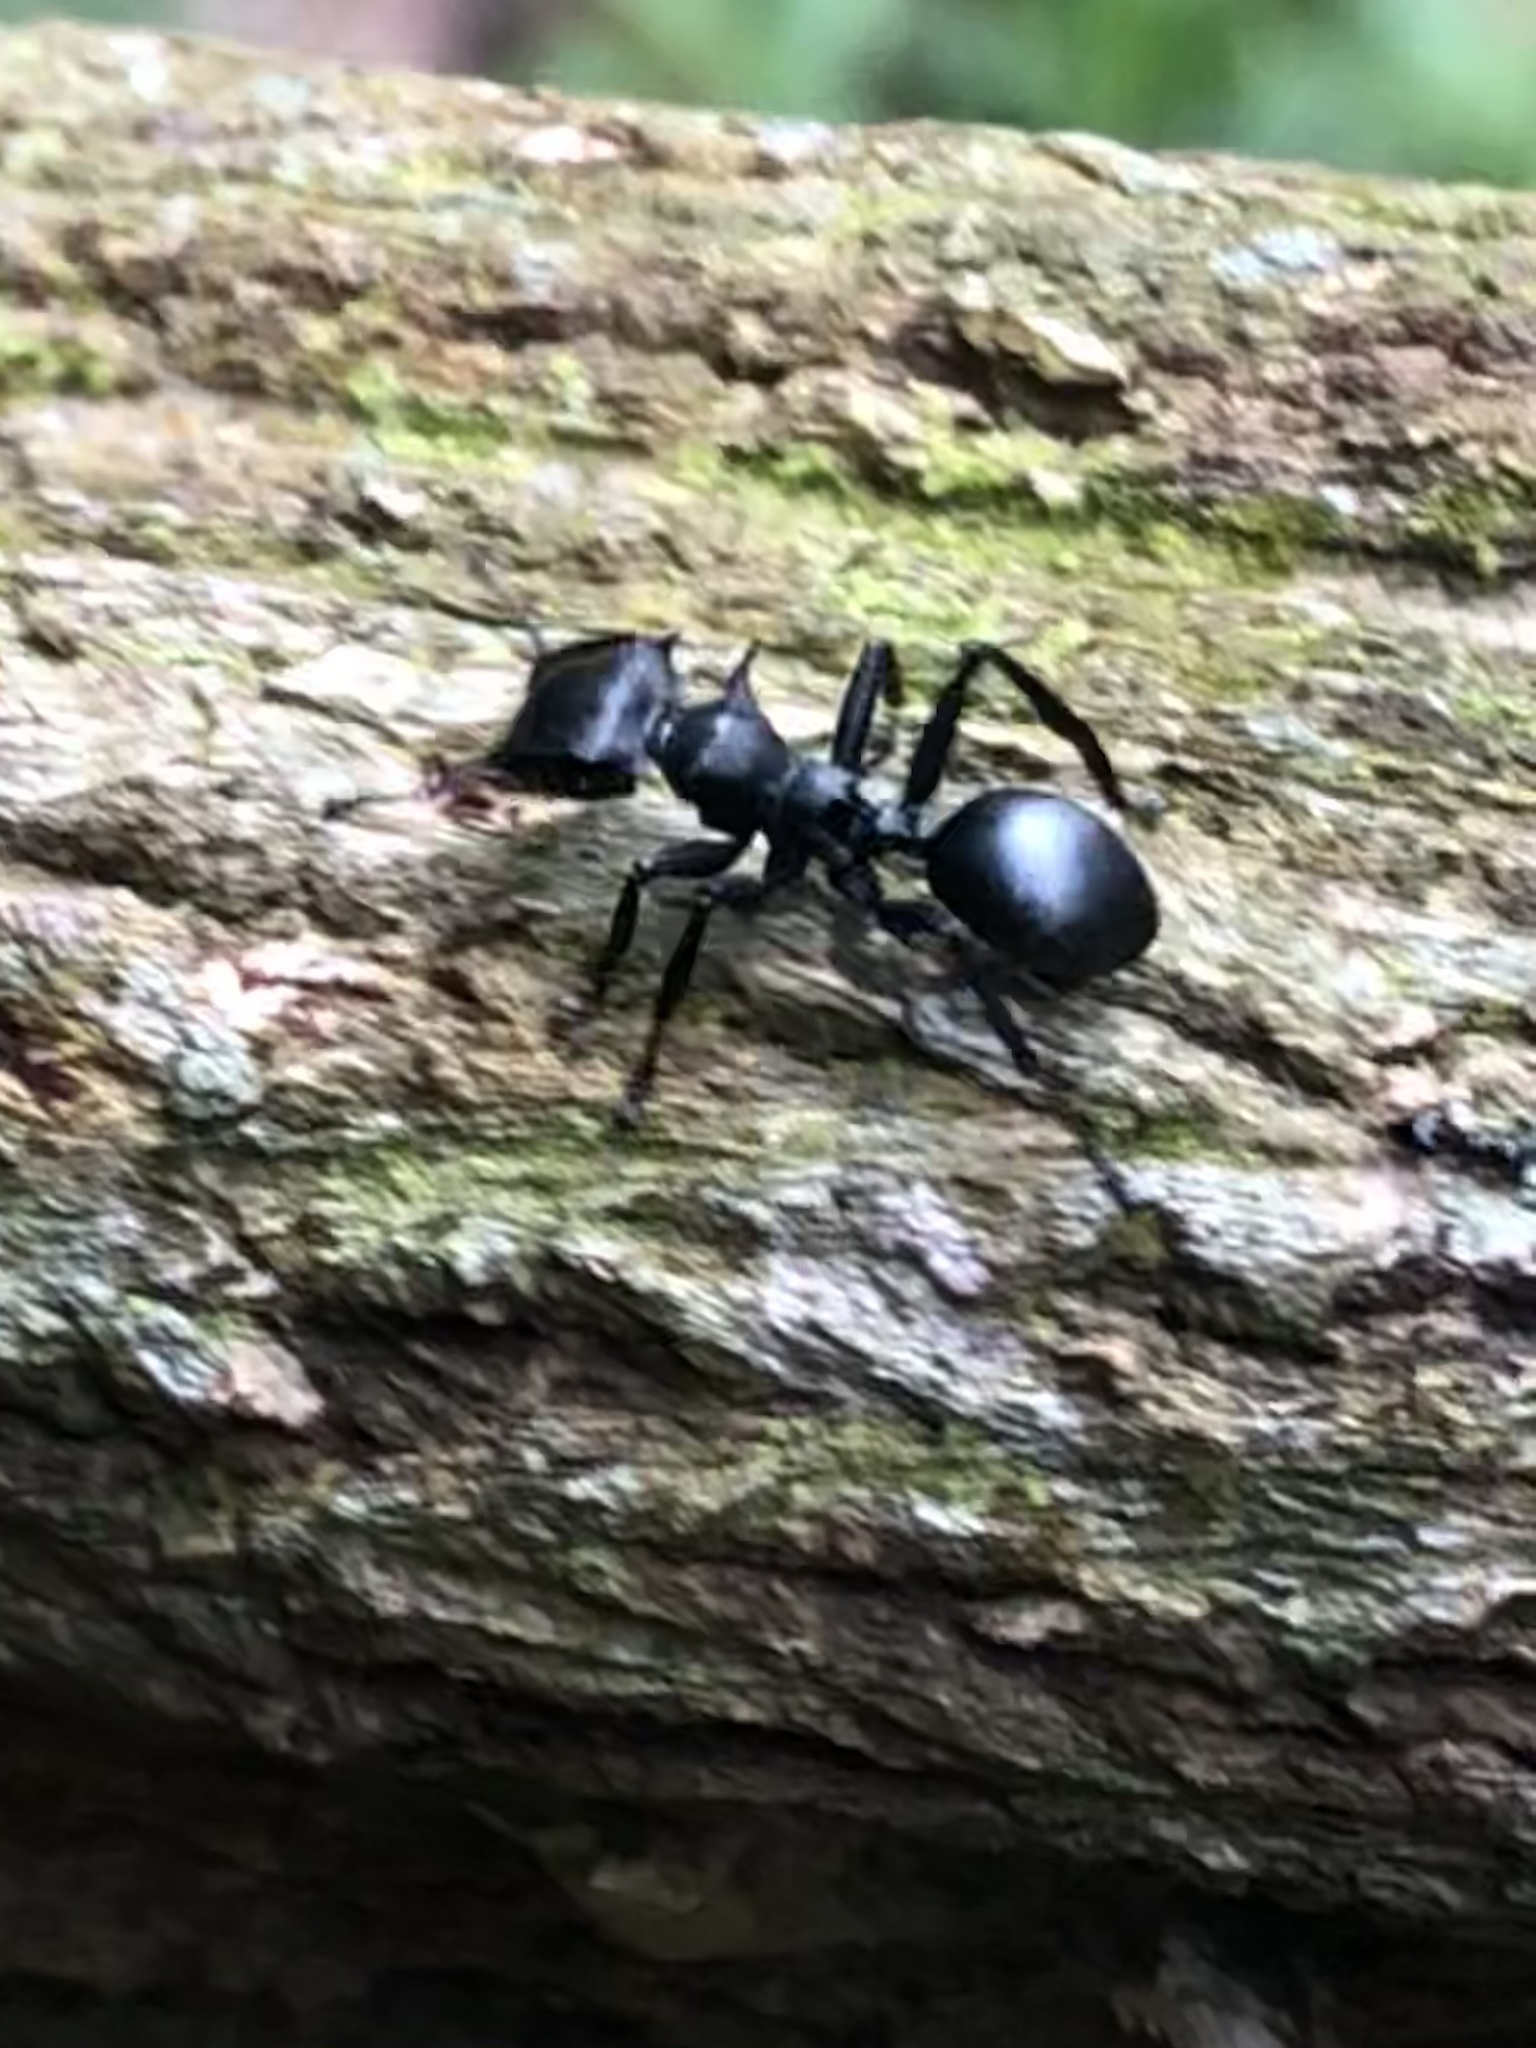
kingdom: Animalia
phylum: Arthropoda
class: Insecta
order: Hymenoptera
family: Formicidae
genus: Cephalotes
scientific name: Cephalotes atratus
